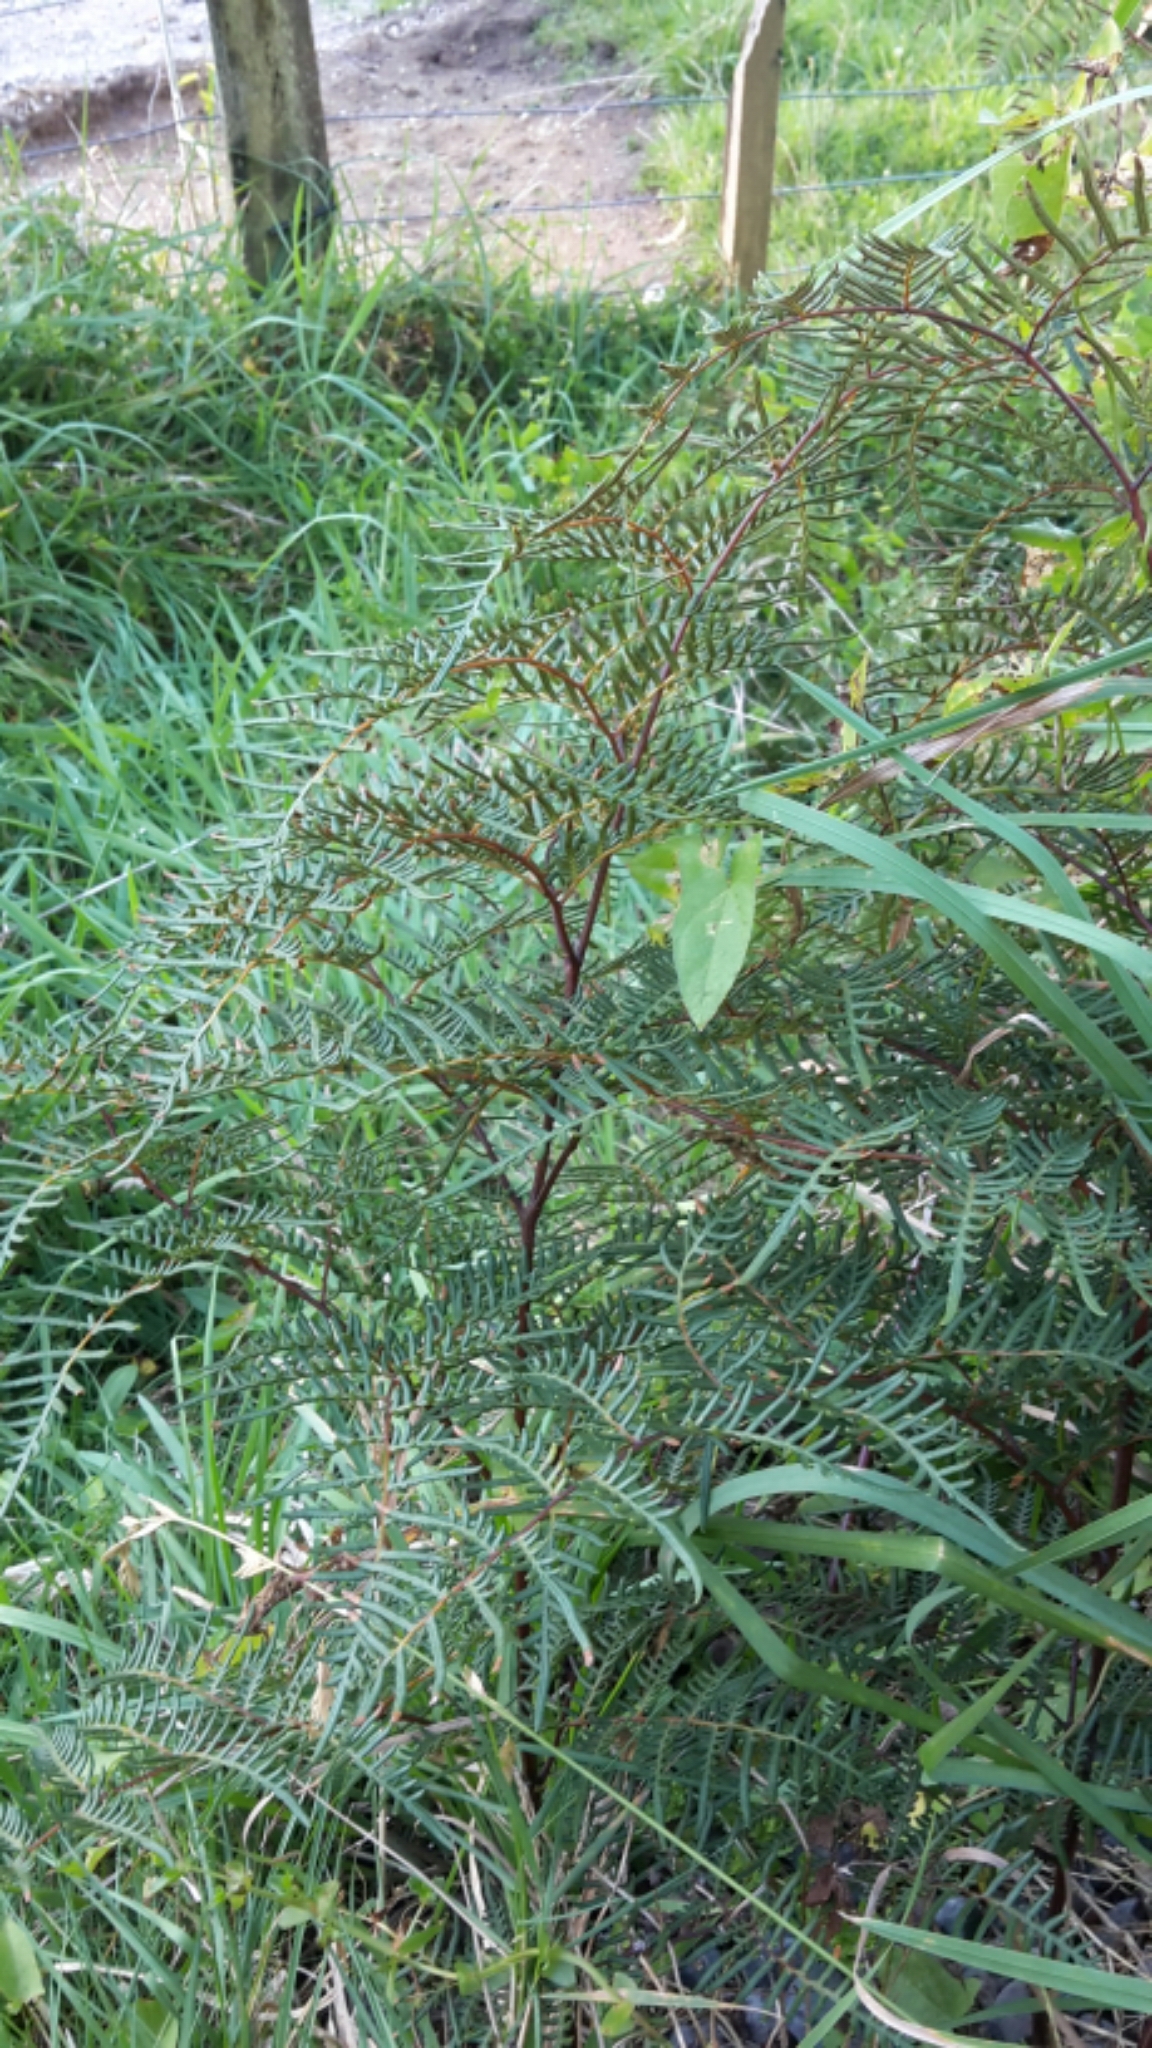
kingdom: Plantae
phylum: Tracheophyta
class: Polypodiopsida
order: Polypodiales
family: Dennstaedtiaceae
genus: Pteridium
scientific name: Pteridium esculentum
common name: Bracken fern
